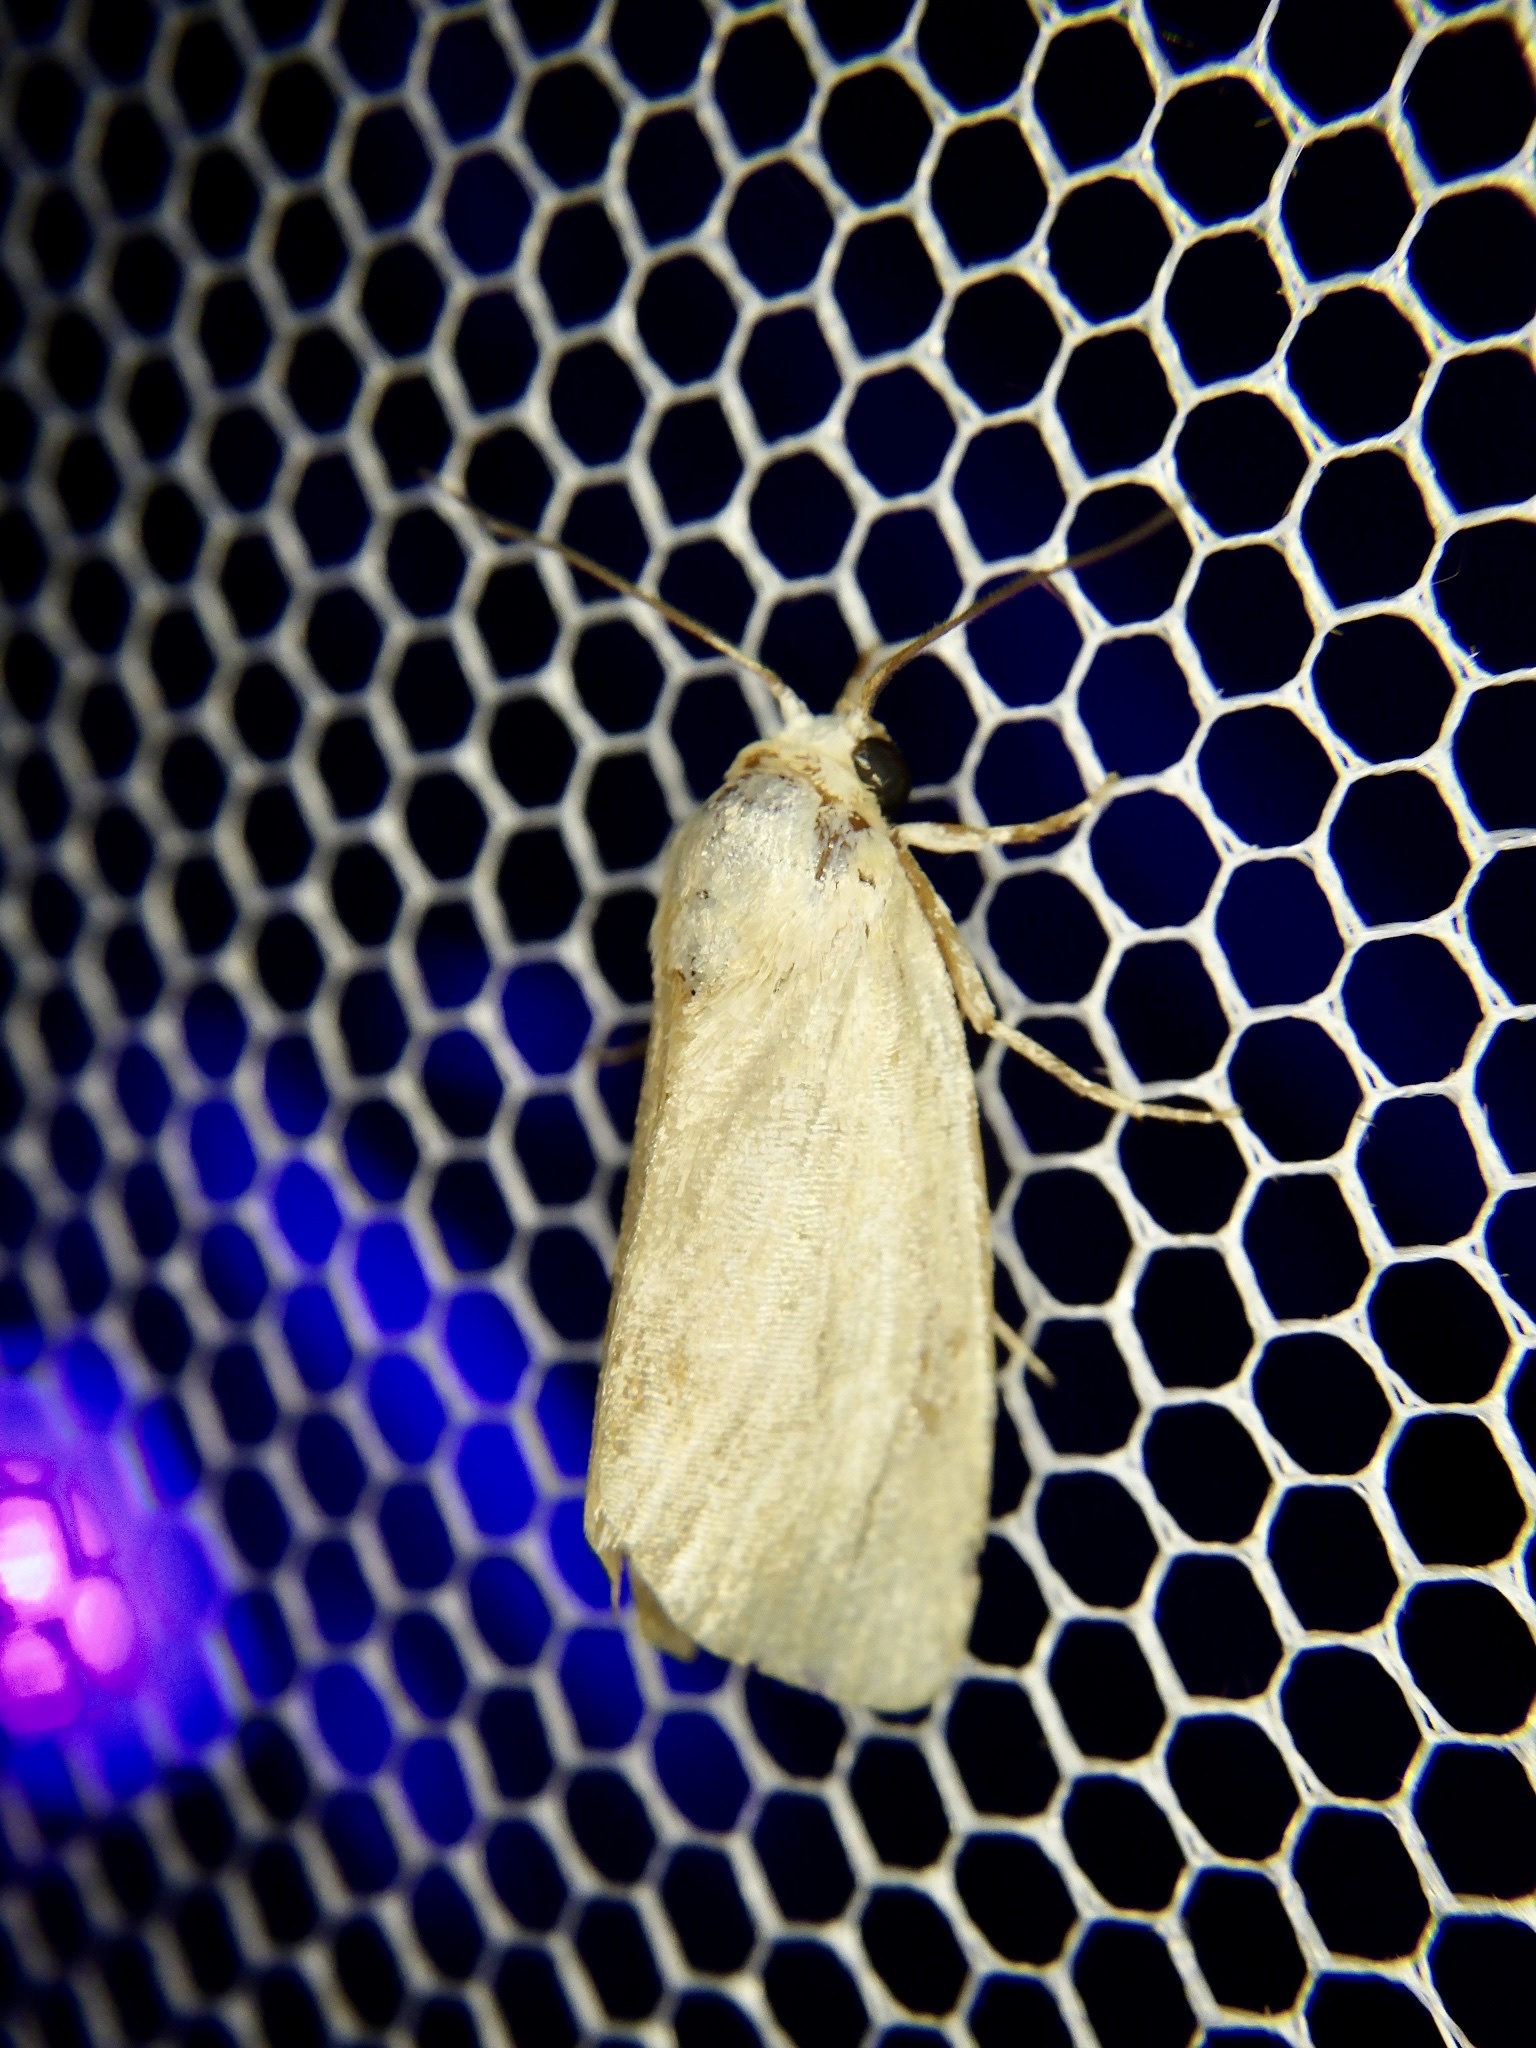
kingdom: Animalia
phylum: Arthropoda
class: Insecta
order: Lepidoptera
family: Nolidae
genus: Iragaodes
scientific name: Iragaodes nobilis
